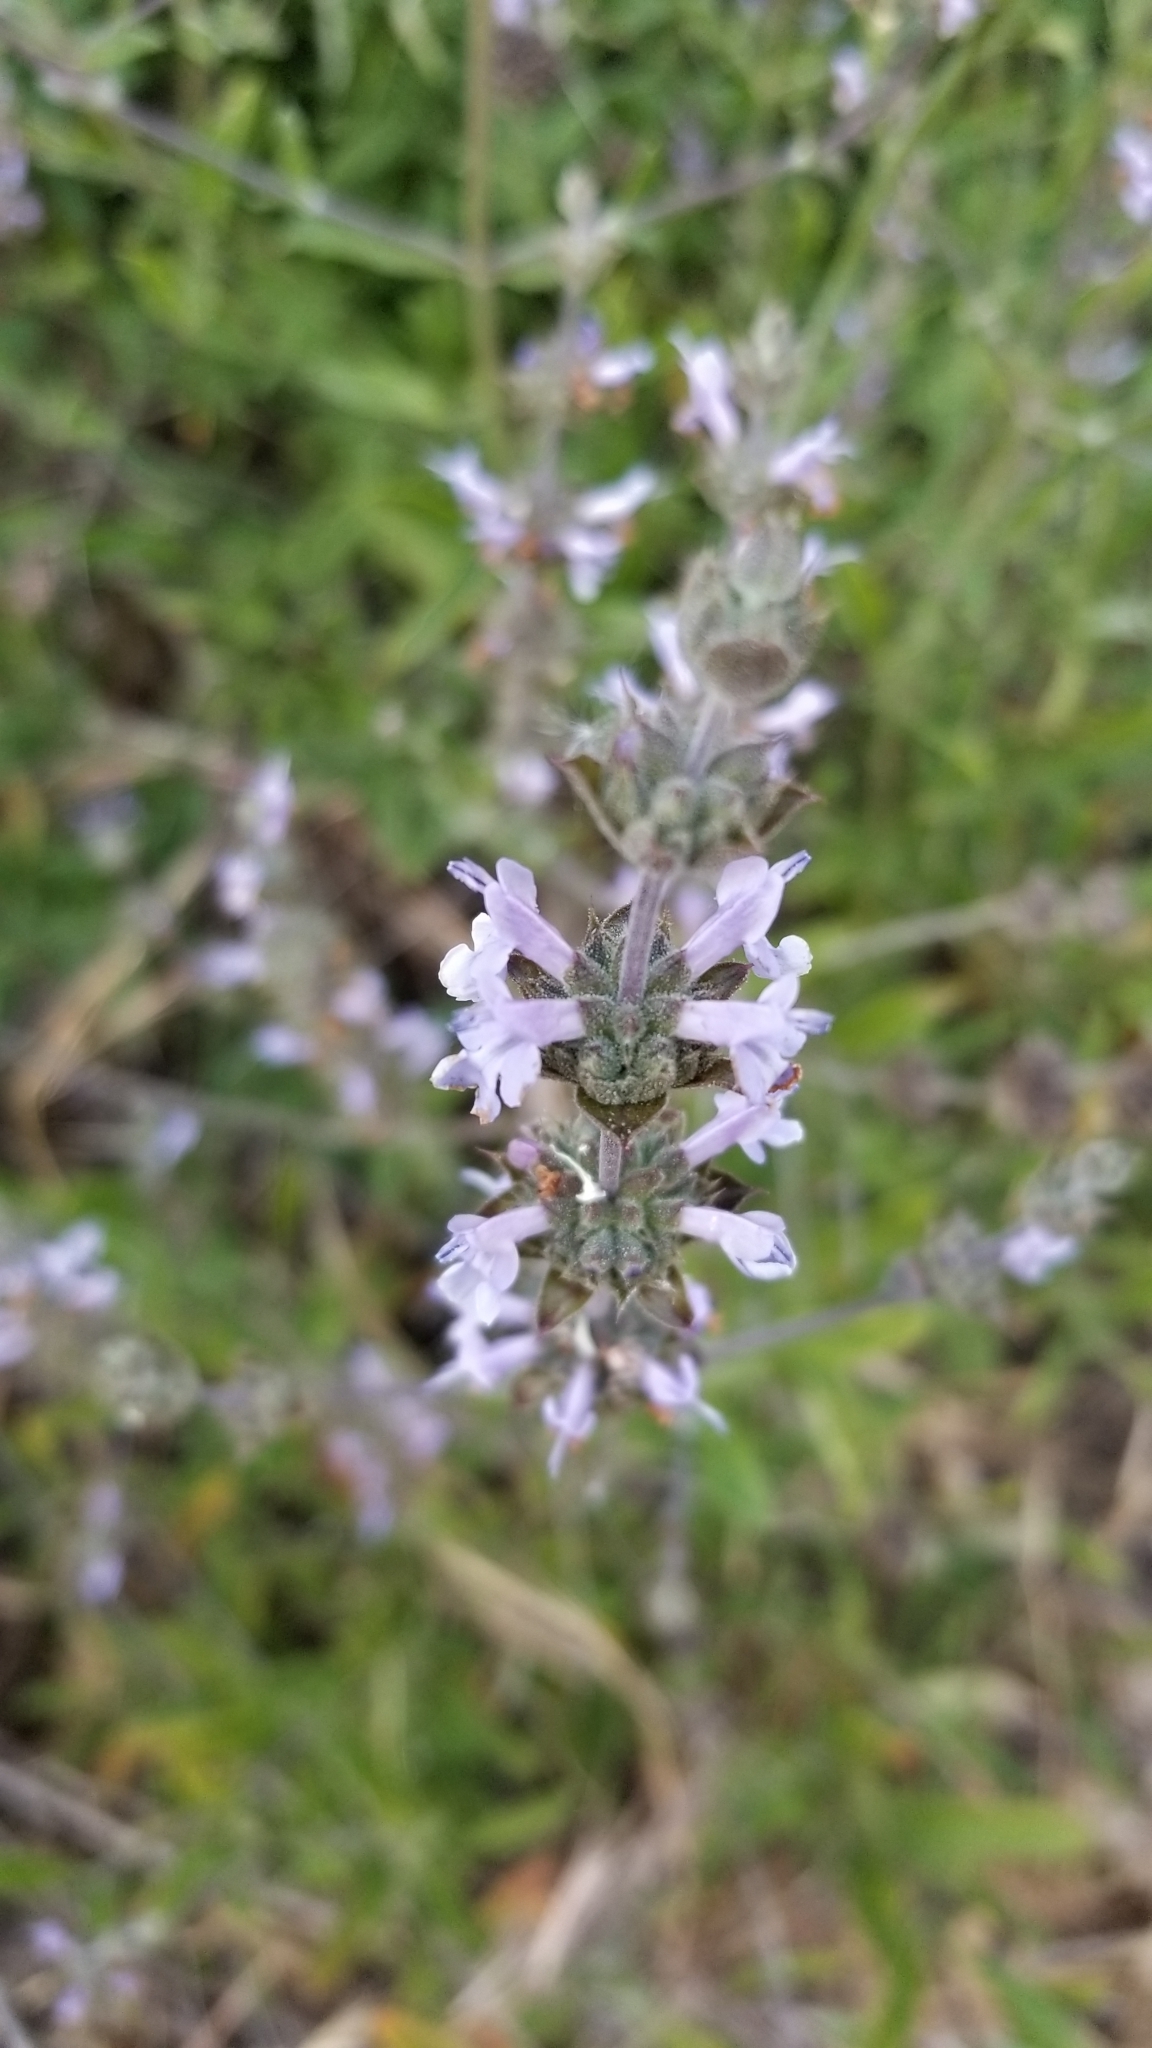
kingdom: Plantae
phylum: Tracheophyta
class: Magnoliopsida
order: Lamiales
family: Lamiaceae
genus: Salvia
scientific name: Salvia mellifera
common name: Black sage
